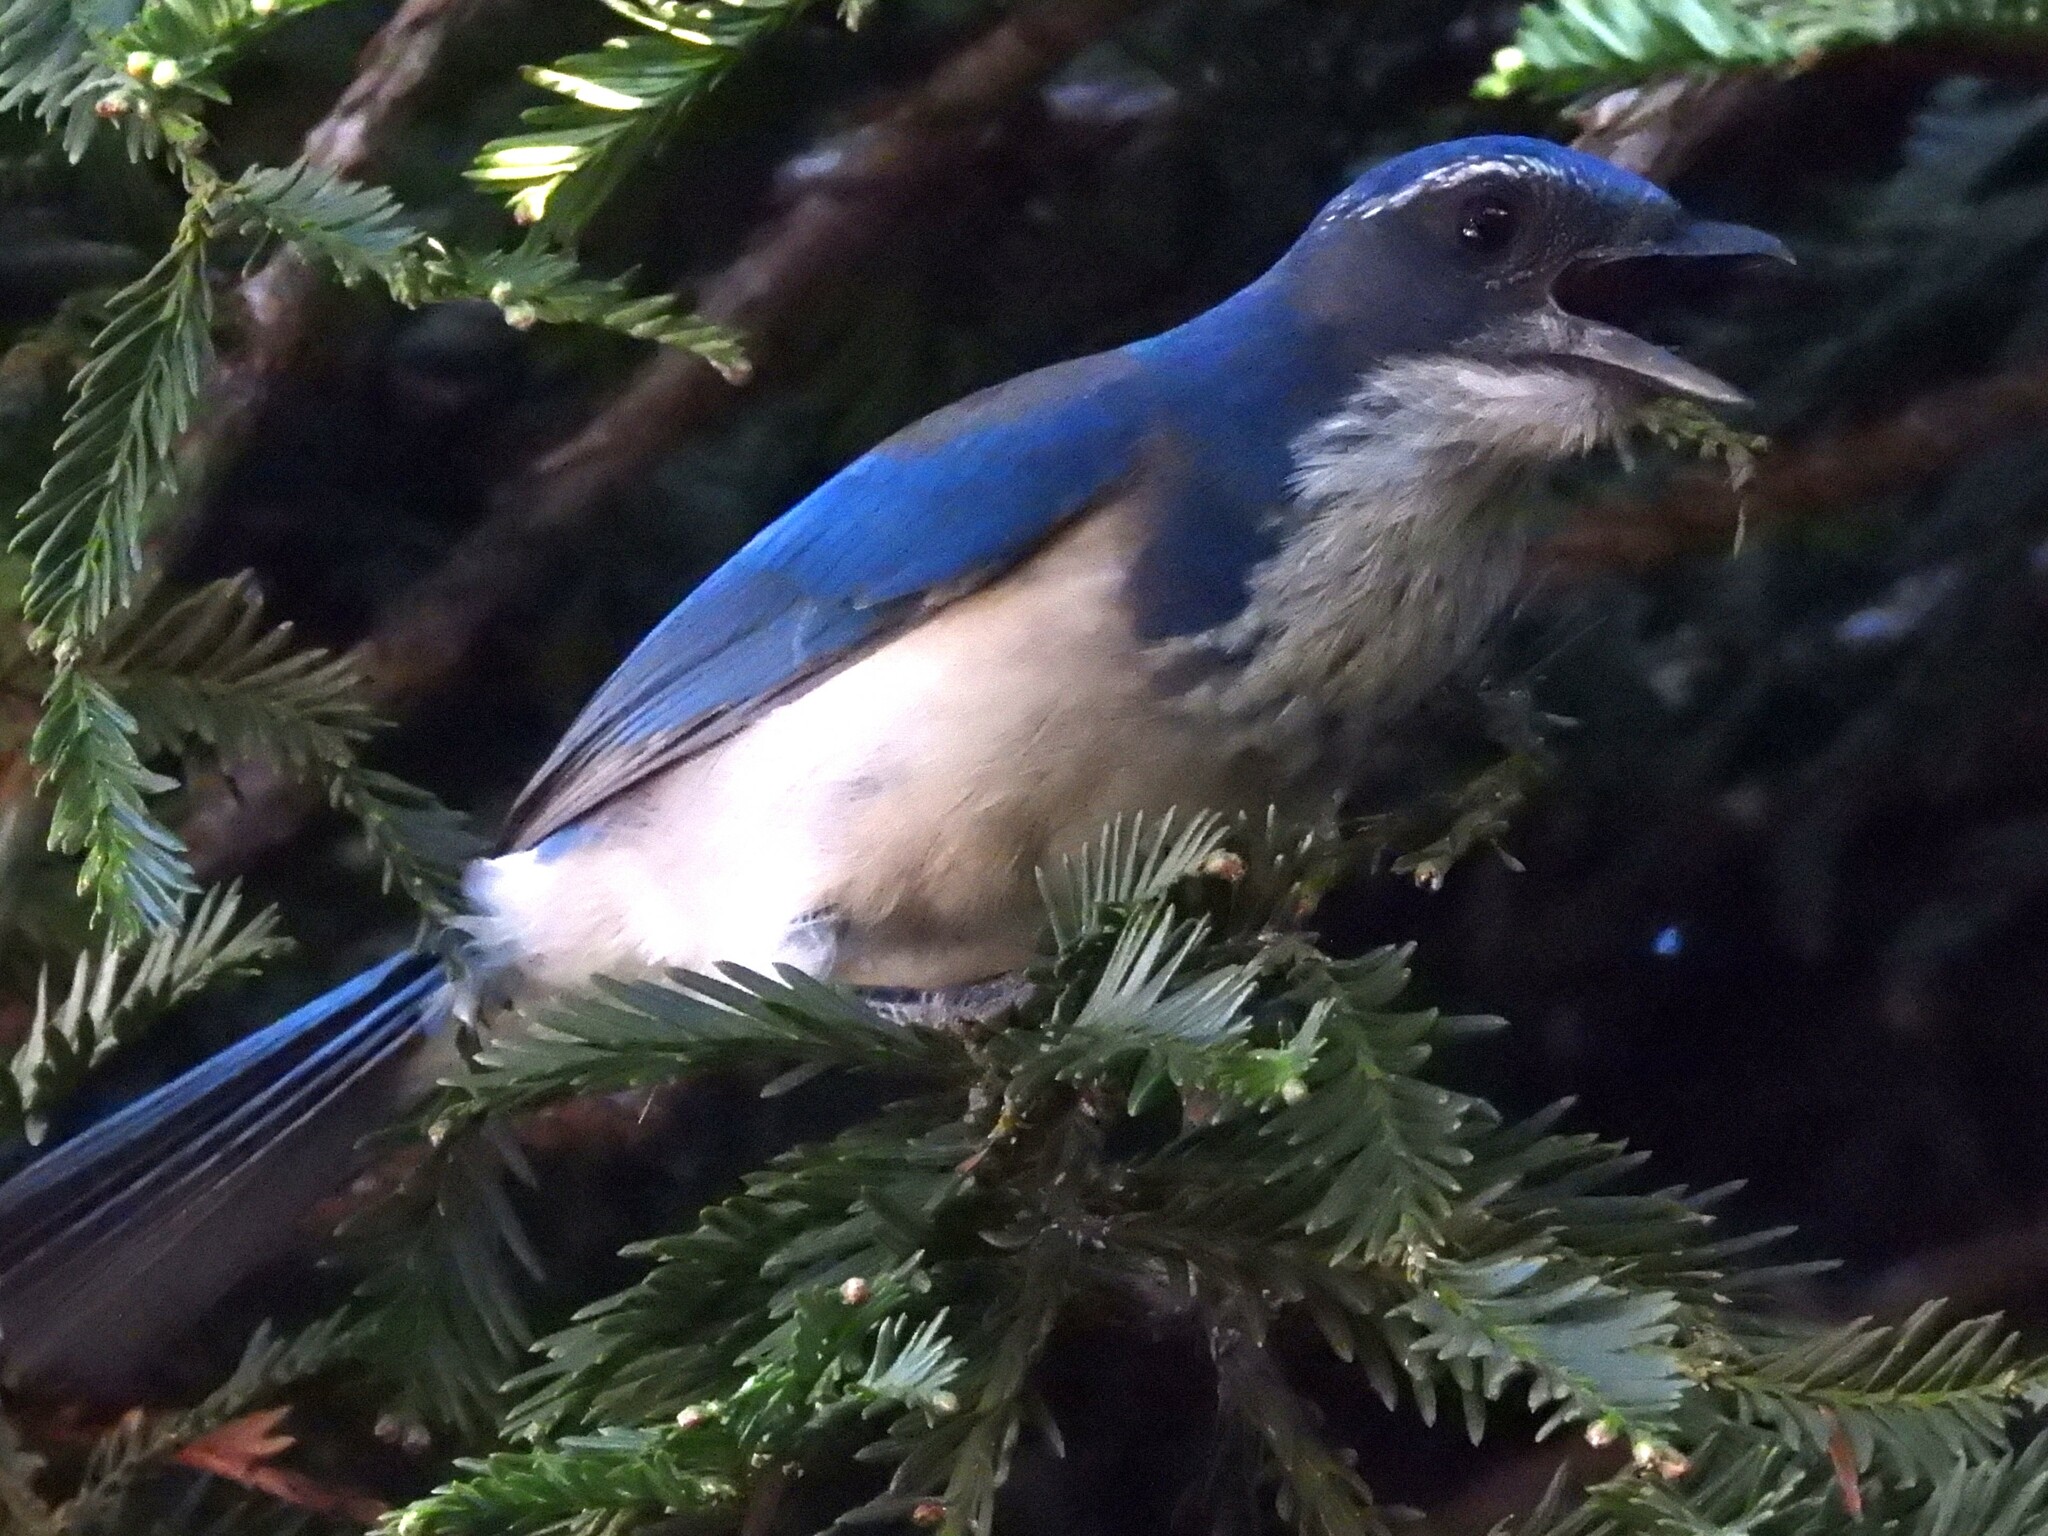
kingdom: Animalia
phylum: Chordata
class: Aves
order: Passeriformes
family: Corvidae
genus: Aphelocoma
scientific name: Aphelocoma californica
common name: California scrub-jay
